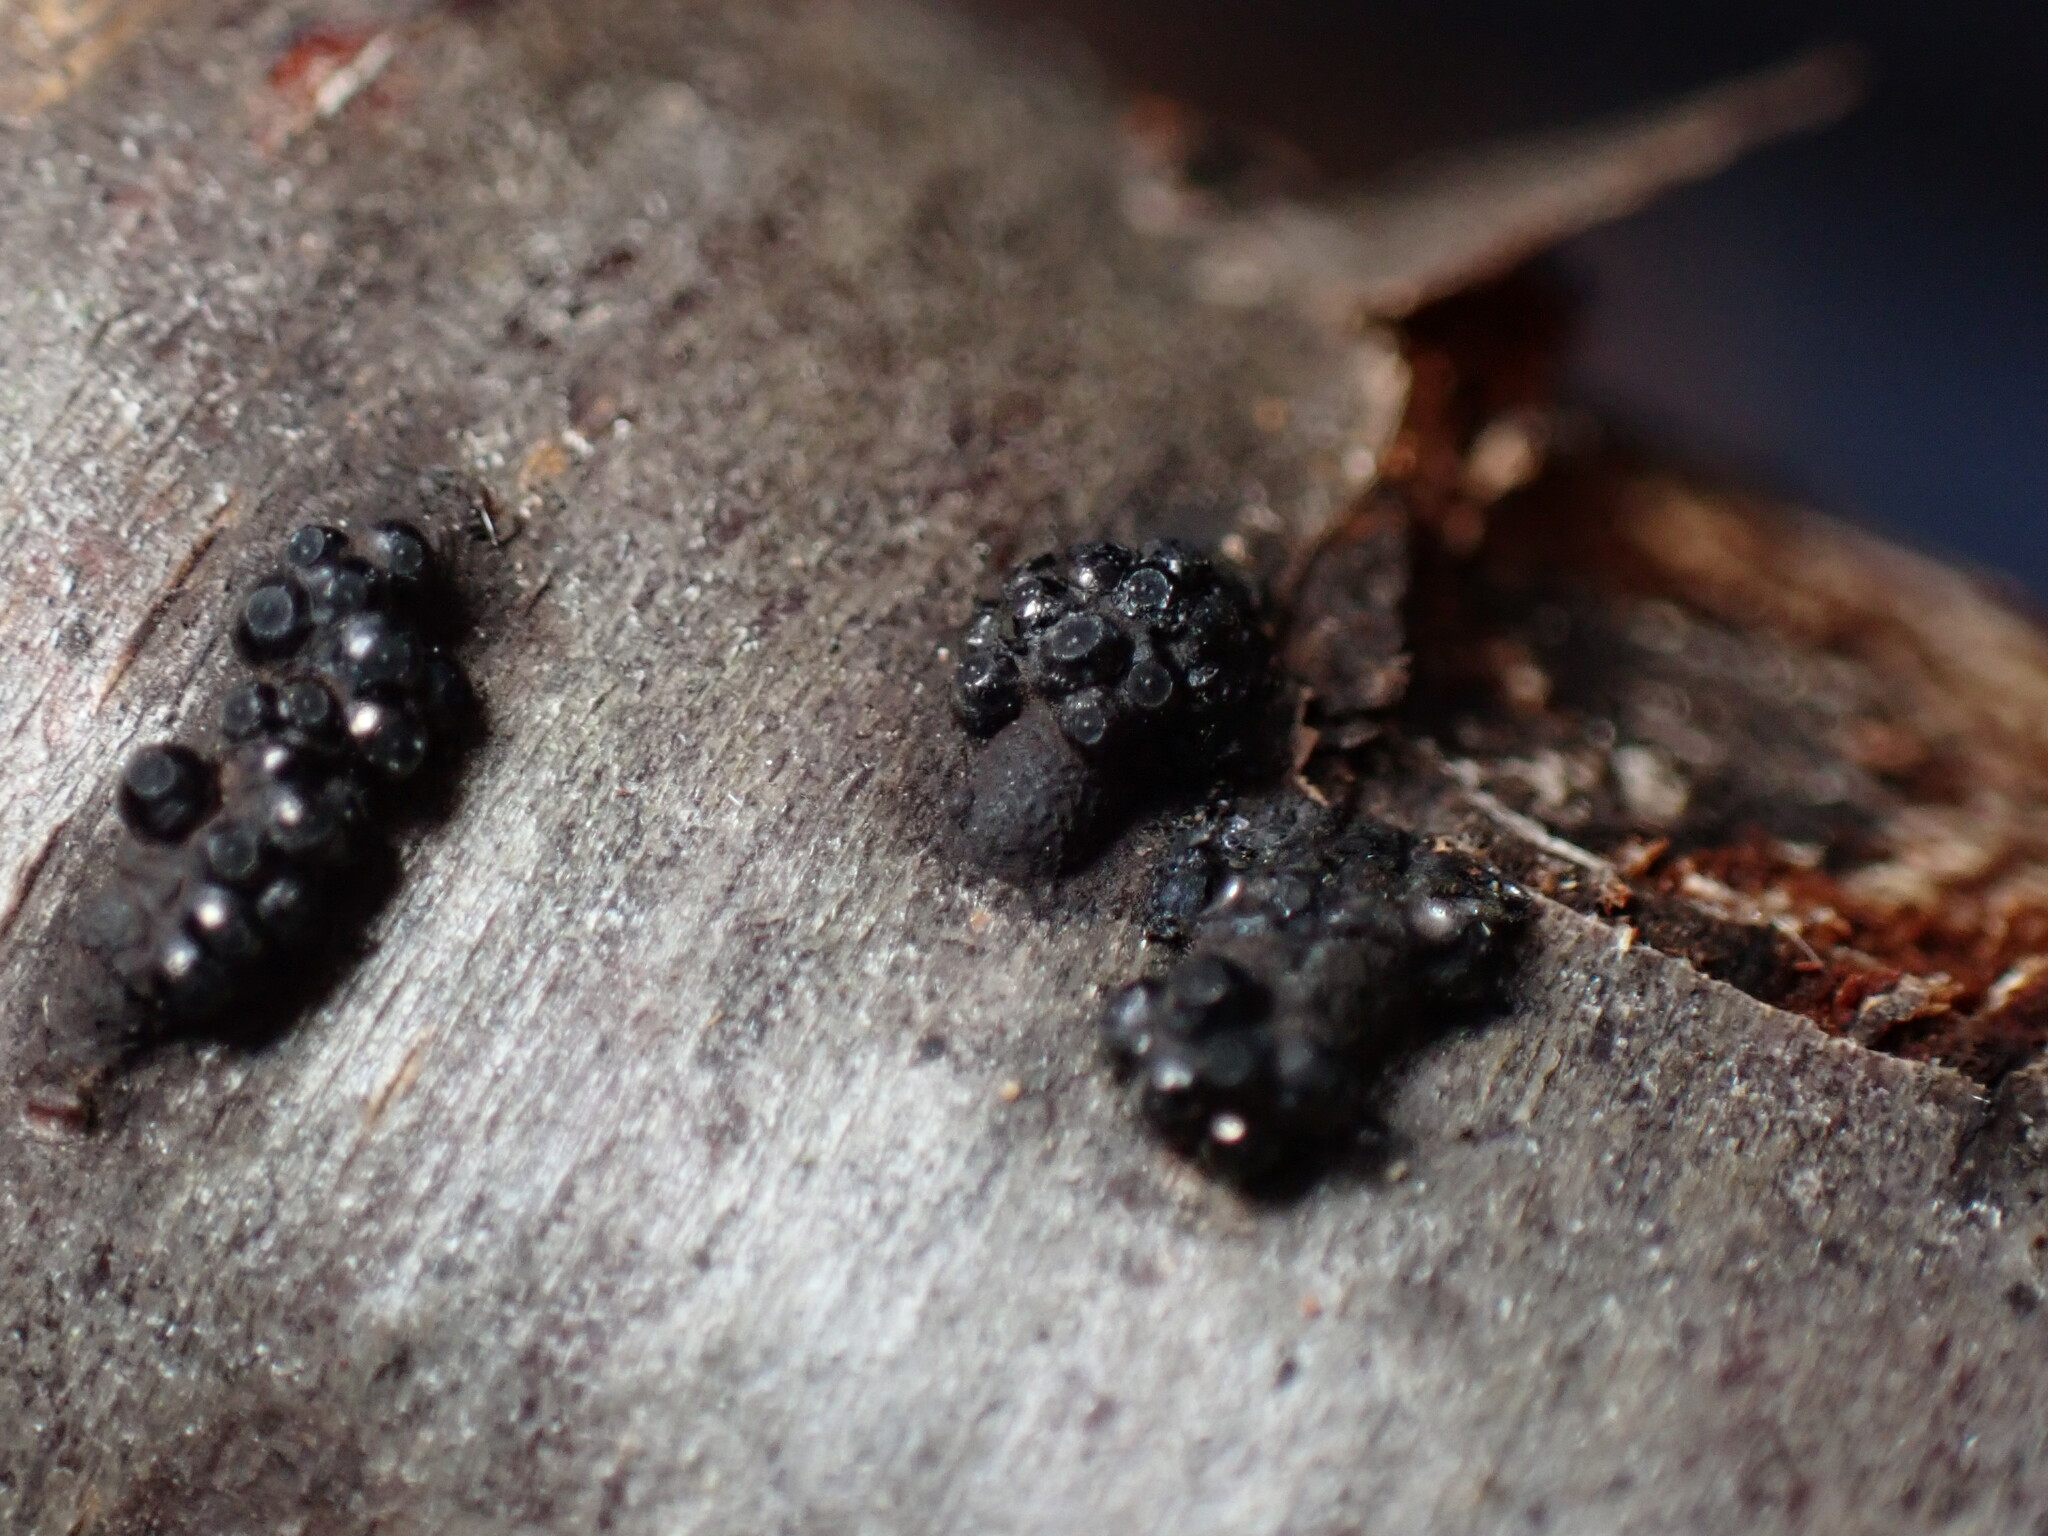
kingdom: Fungi
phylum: Ascomycota
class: Sordariomycetes
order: Xylariales
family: Hypoxylaceae
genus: Annulohypoxylon
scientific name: Annulohypoxylon truncatum
